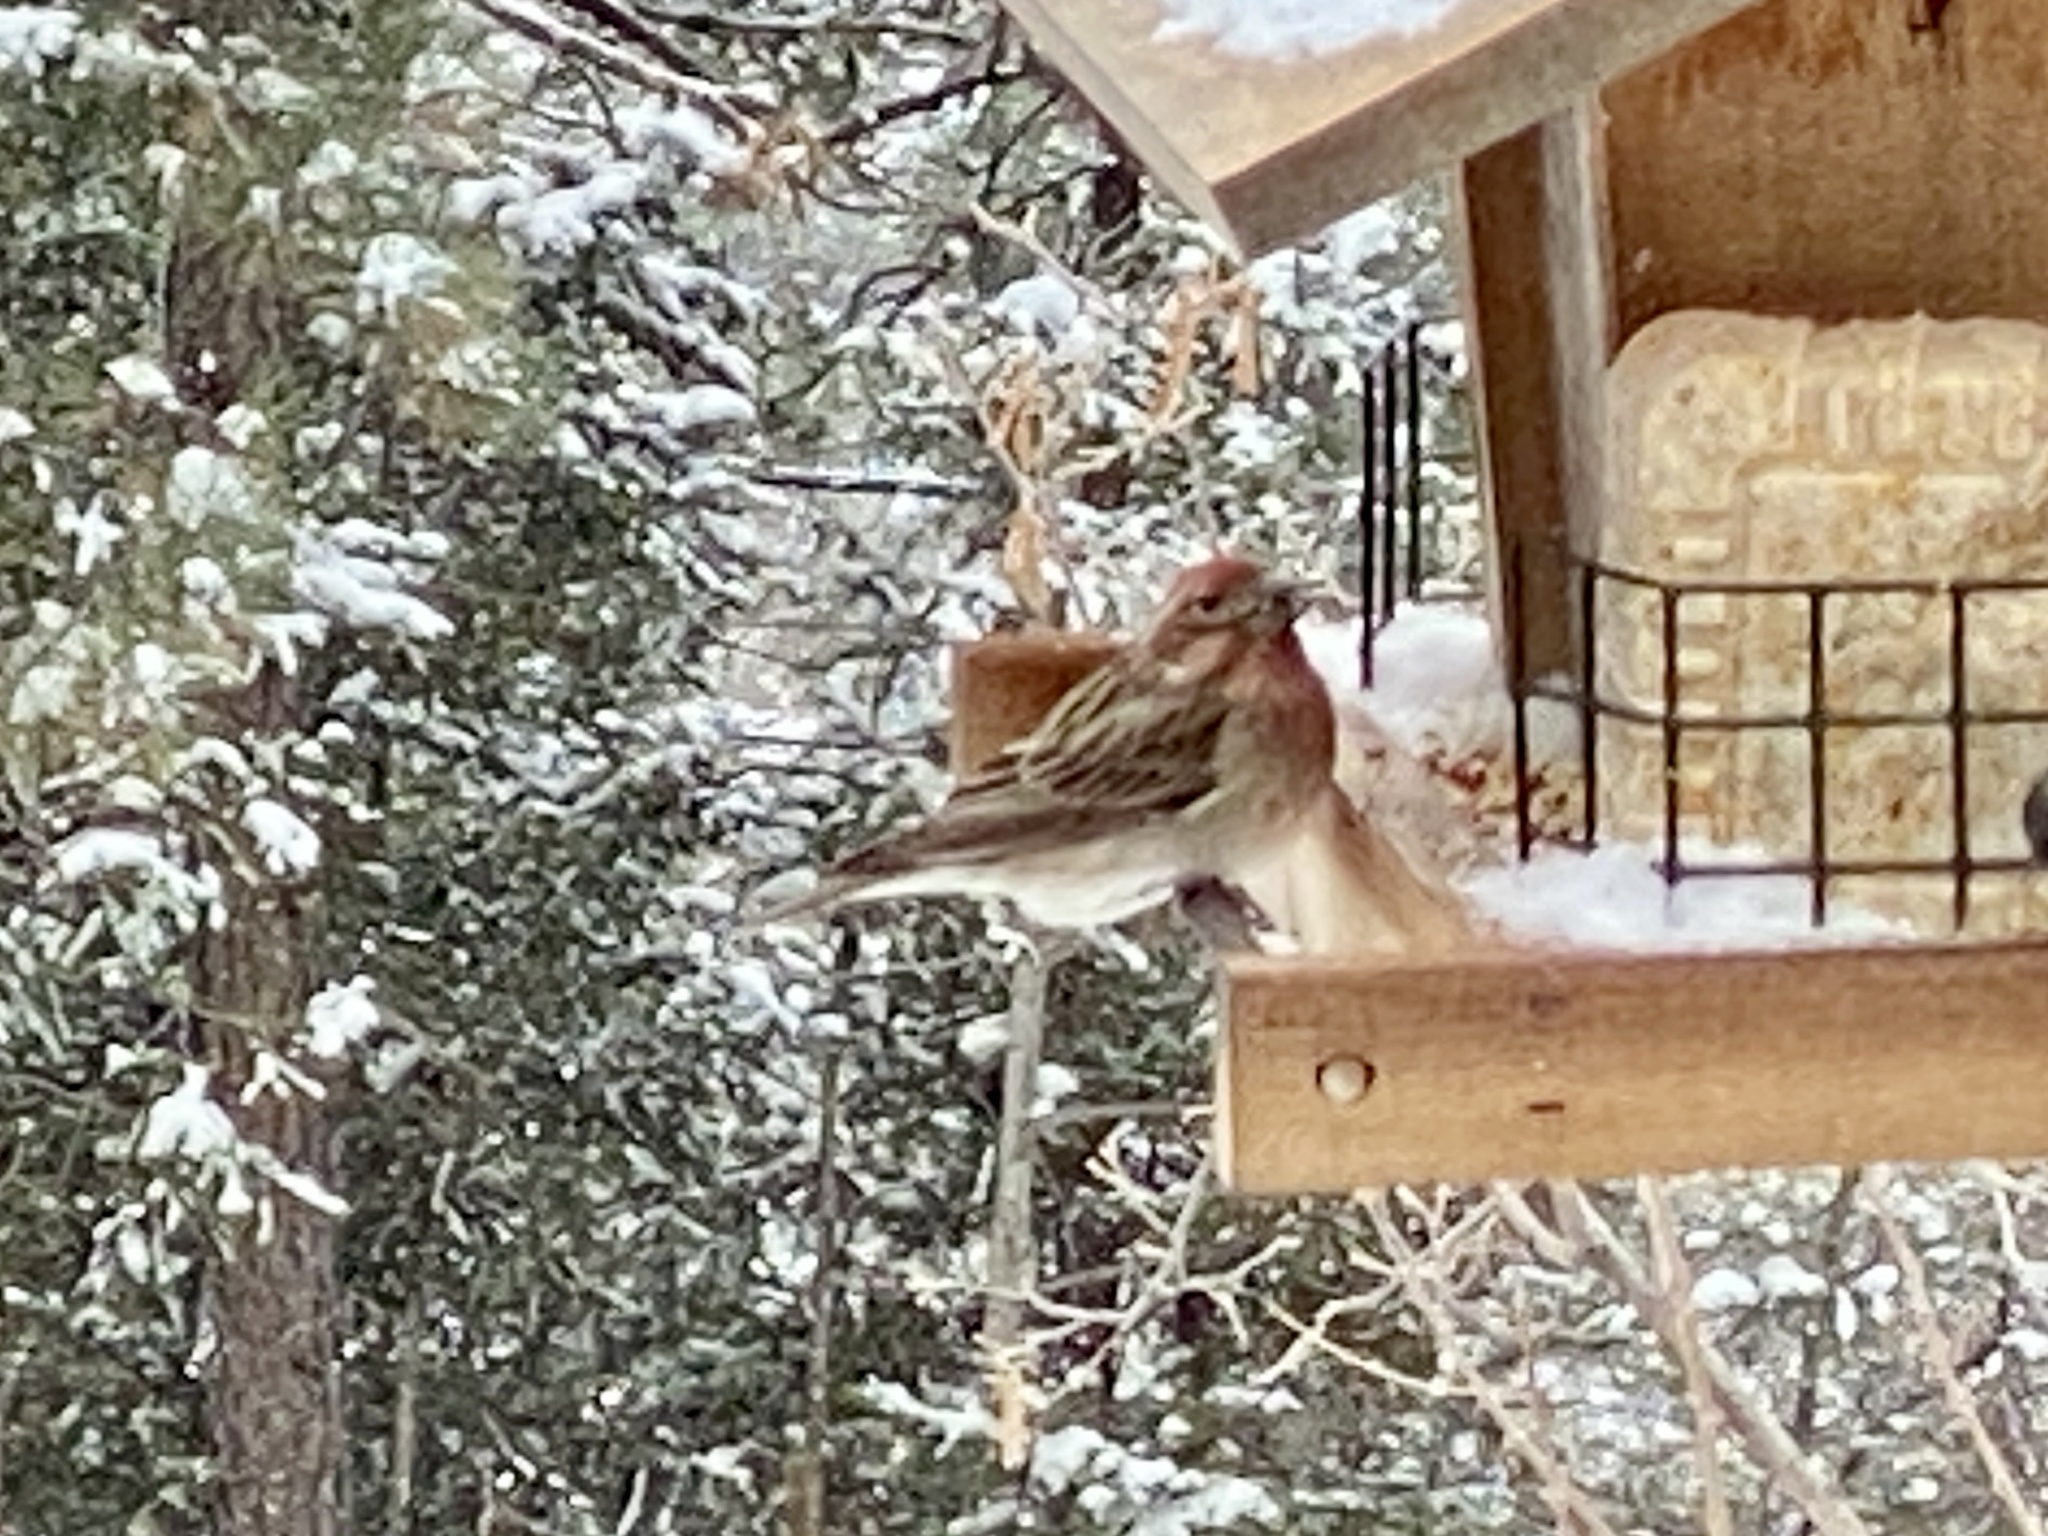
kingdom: Animalia
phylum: Chordata
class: Aves
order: Passeriformes
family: Fringillidae
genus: Haemorhous
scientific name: Haemorhous cassinii
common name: Cassin's finch
